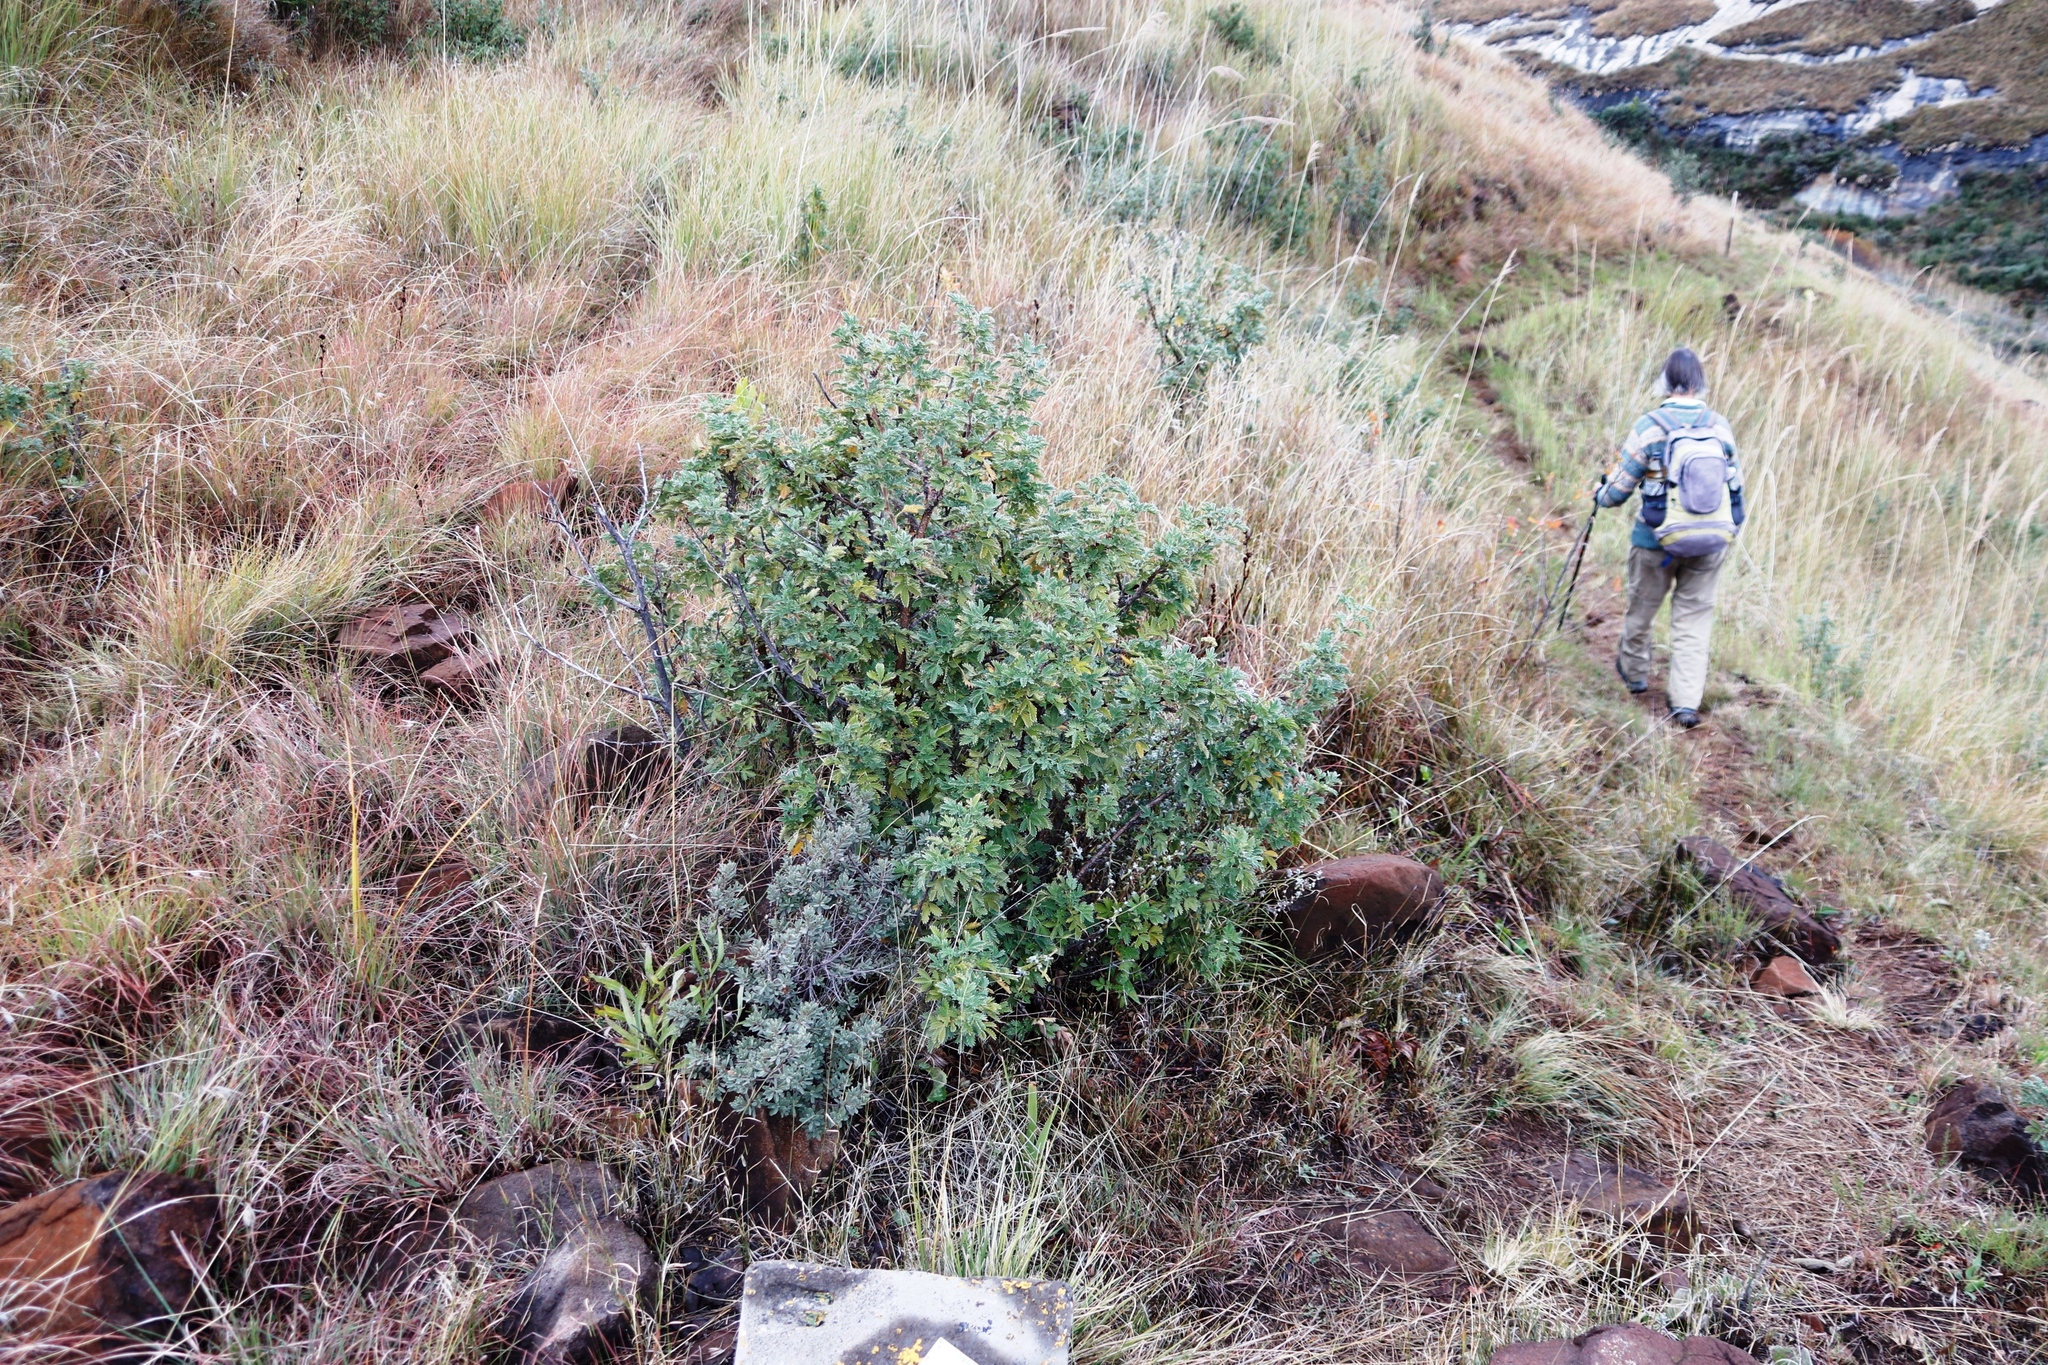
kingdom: Plantae
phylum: Tracheophyta
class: Magnoliopsida
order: Rosales
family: Rosaceae
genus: Leucosidea
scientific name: Leucosidea sericea
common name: Oldwood
